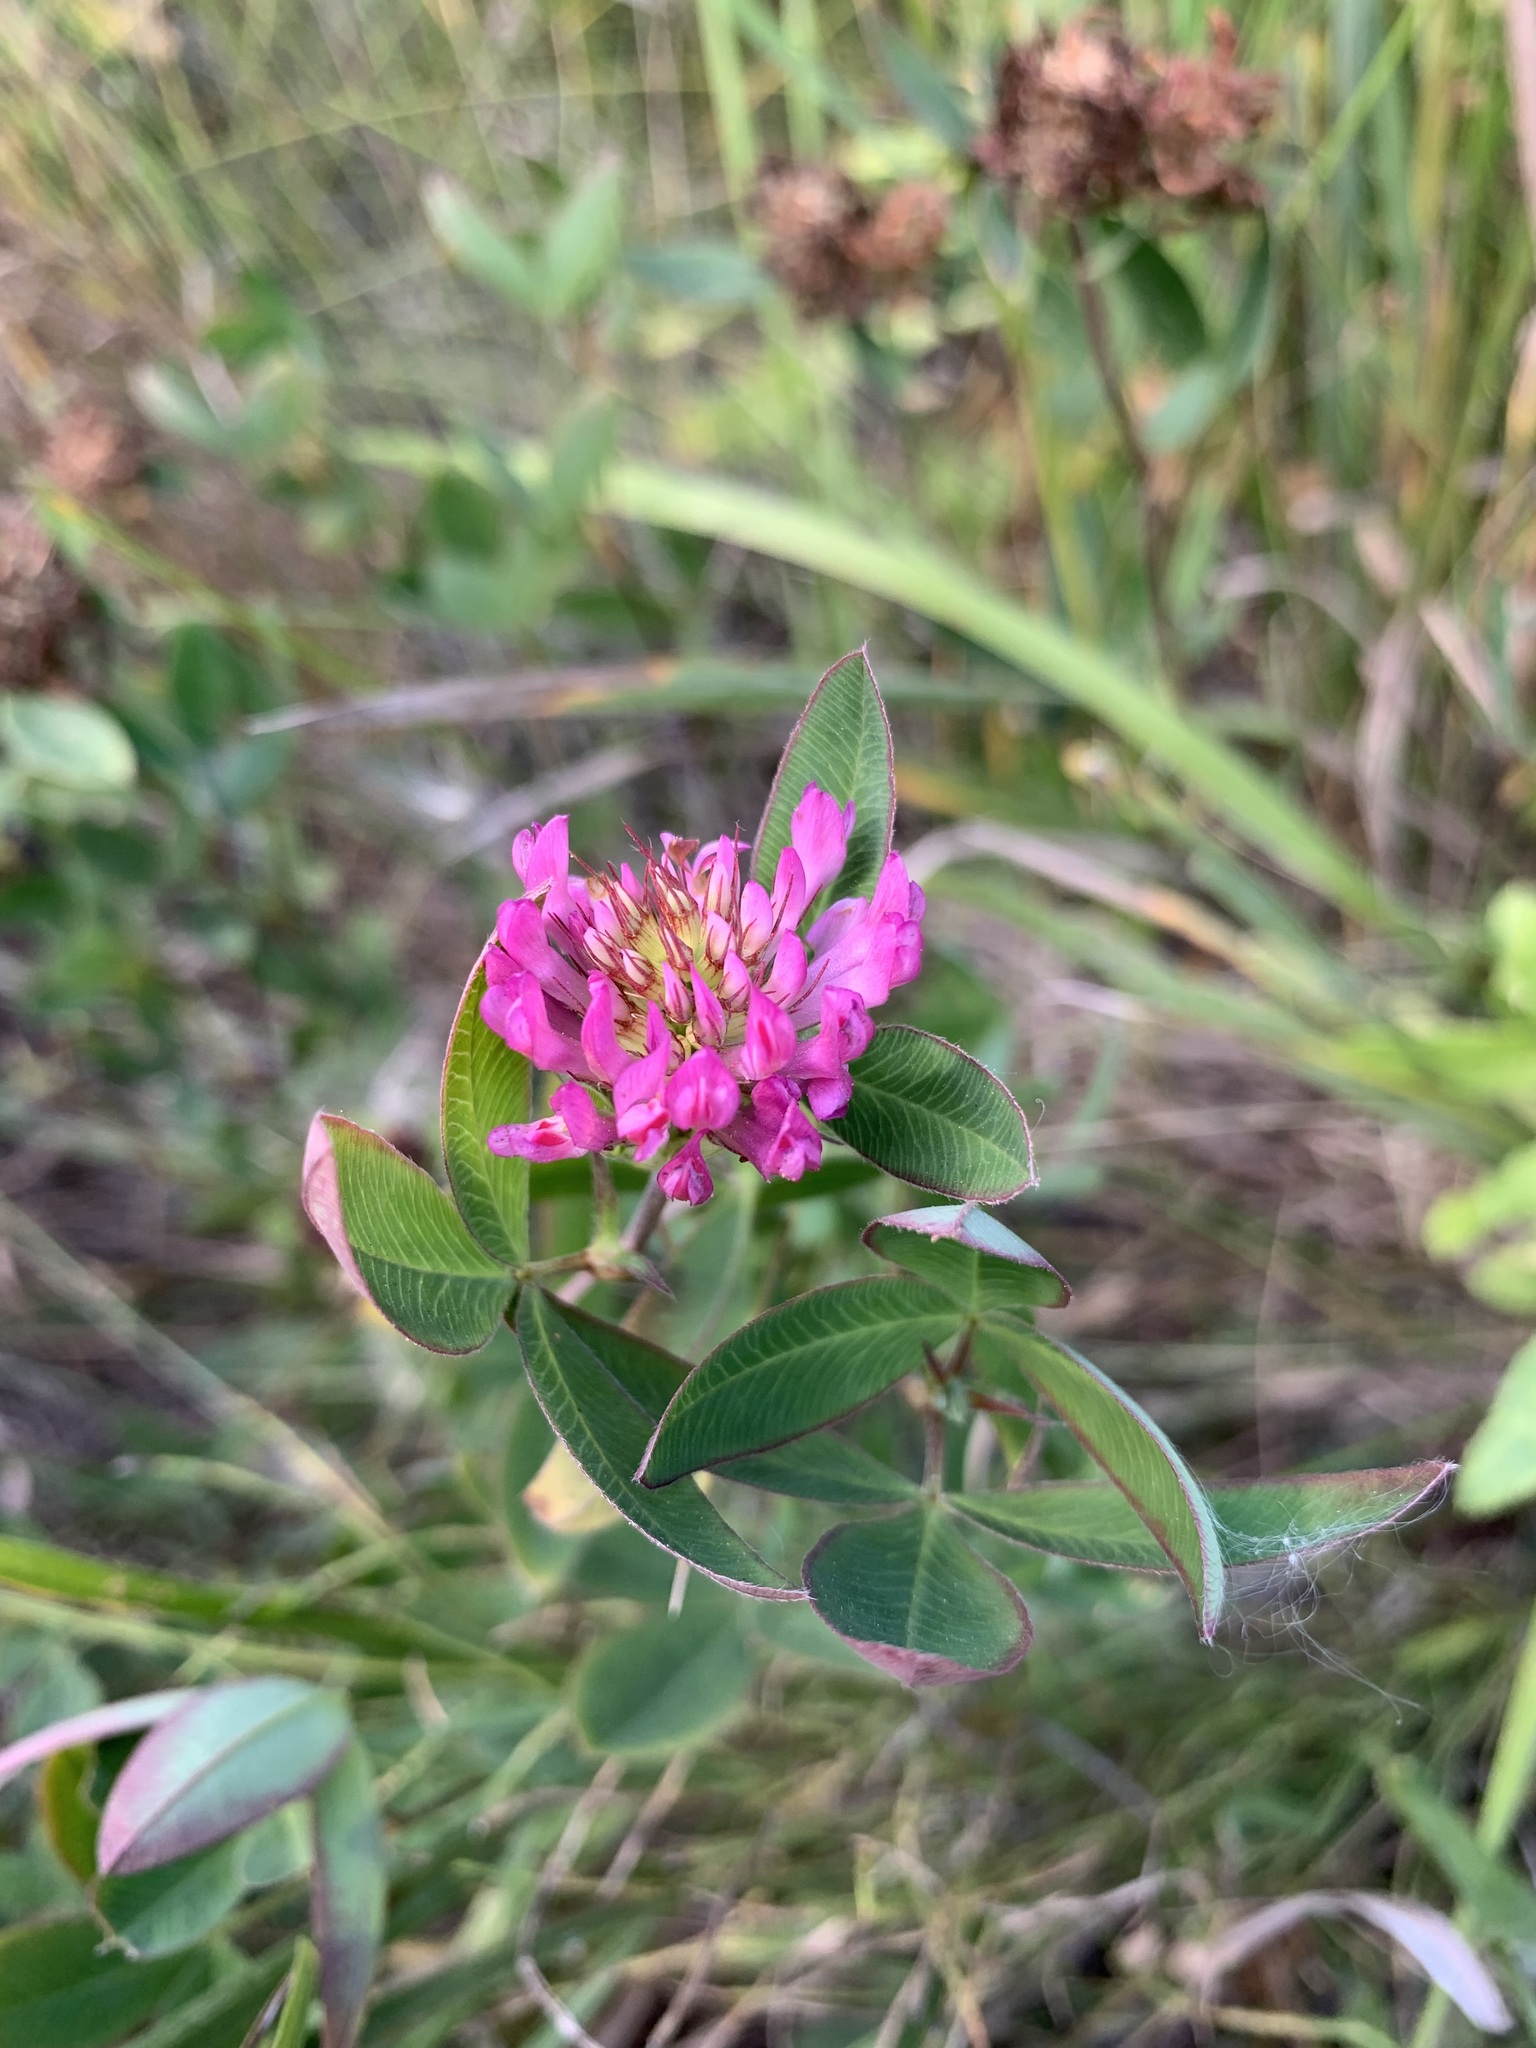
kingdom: Plantae
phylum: Tracheophyta
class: Magnoliopsida
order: Fabales
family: Fabaceae
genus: Trifolium
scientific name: Trifolium medium
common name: Zigzag clover
